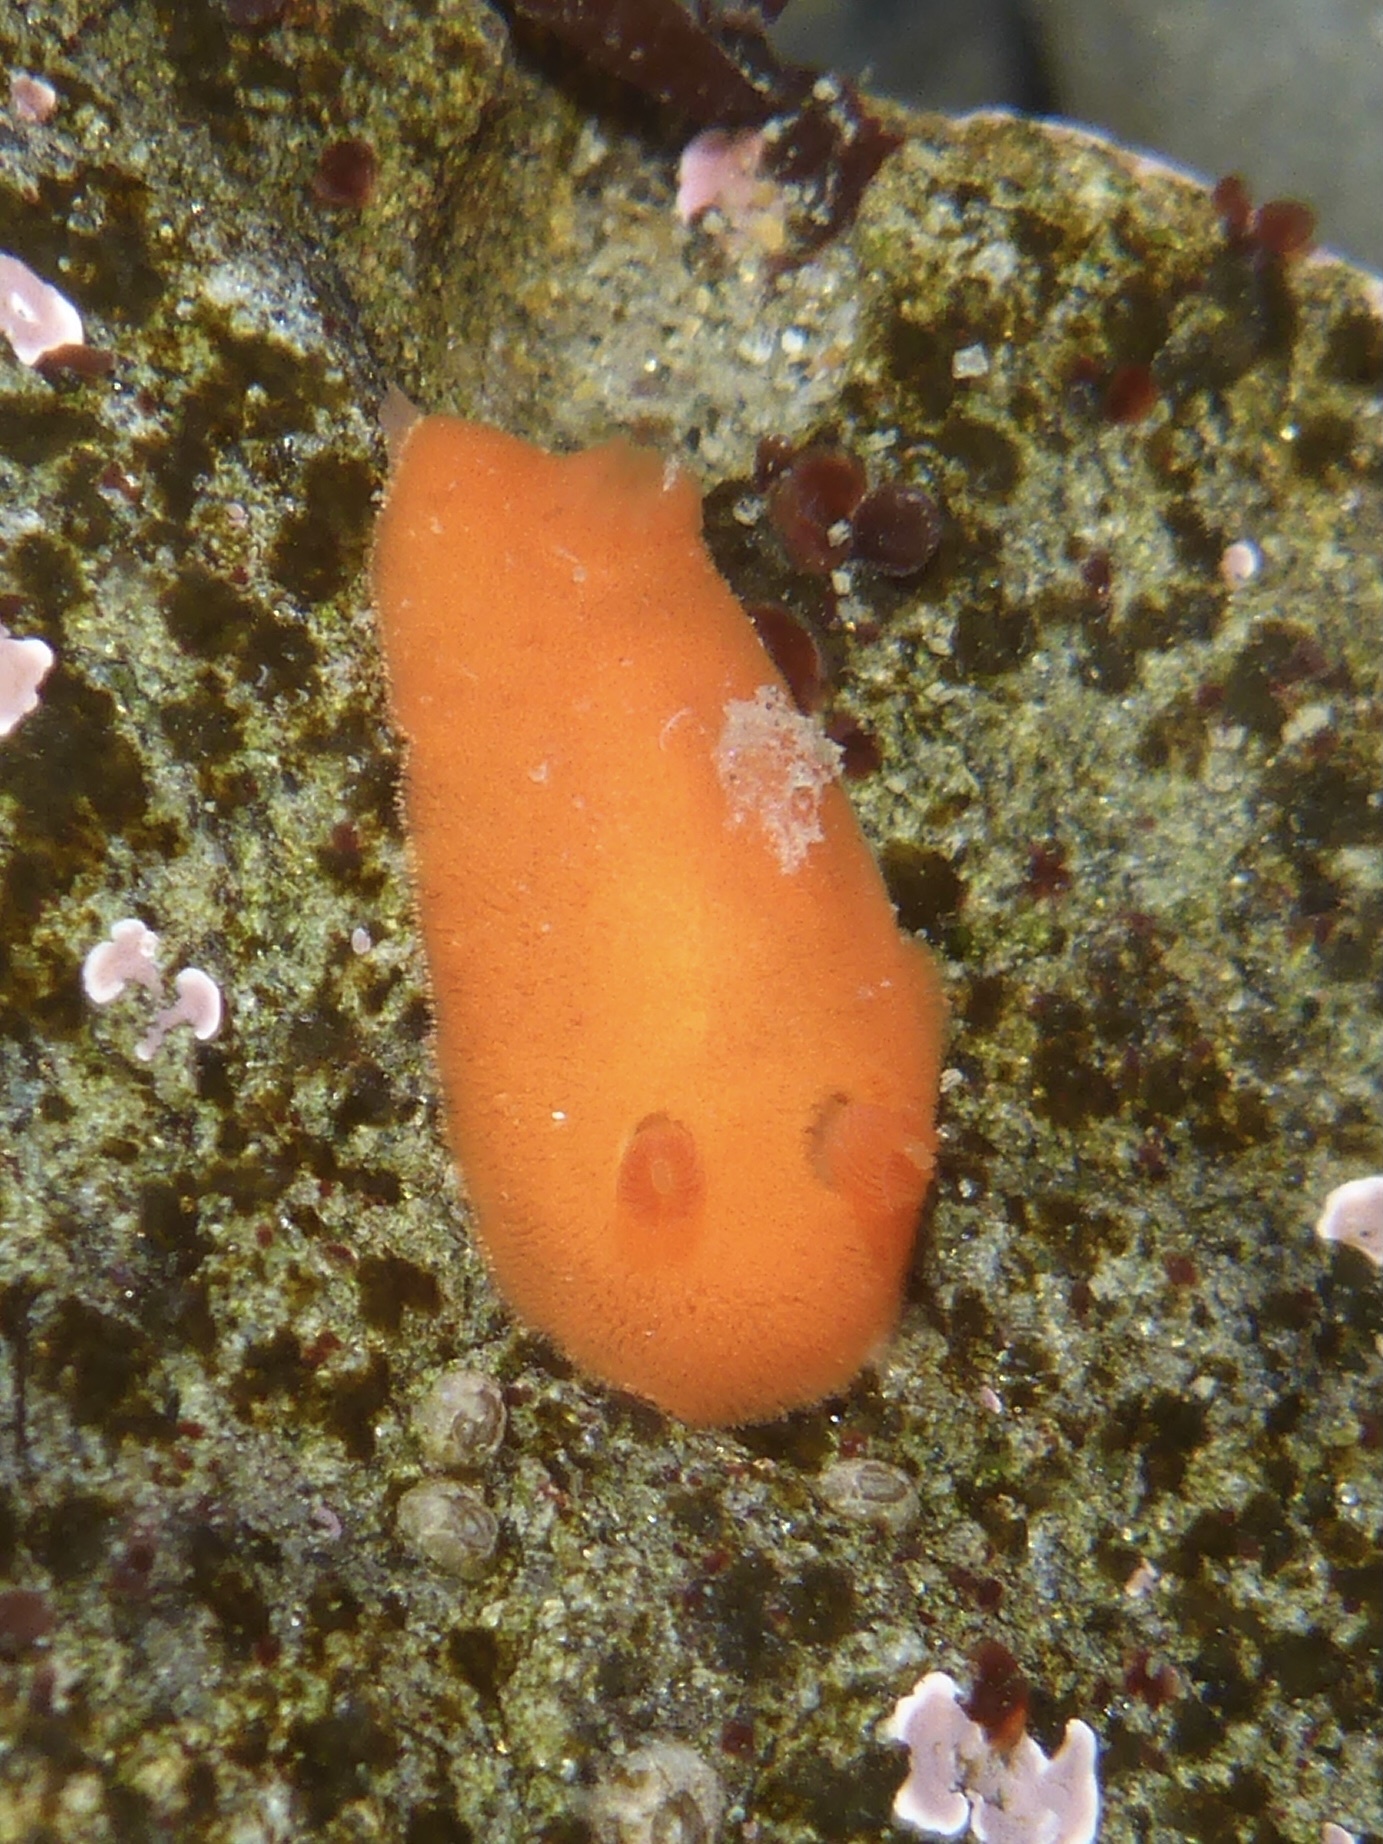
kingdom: Animalia
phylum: Mollusca
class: Gastropoda
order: Nudibranchia
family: Discodorididae
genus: Rostanga
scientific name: Rostanga pulchra
